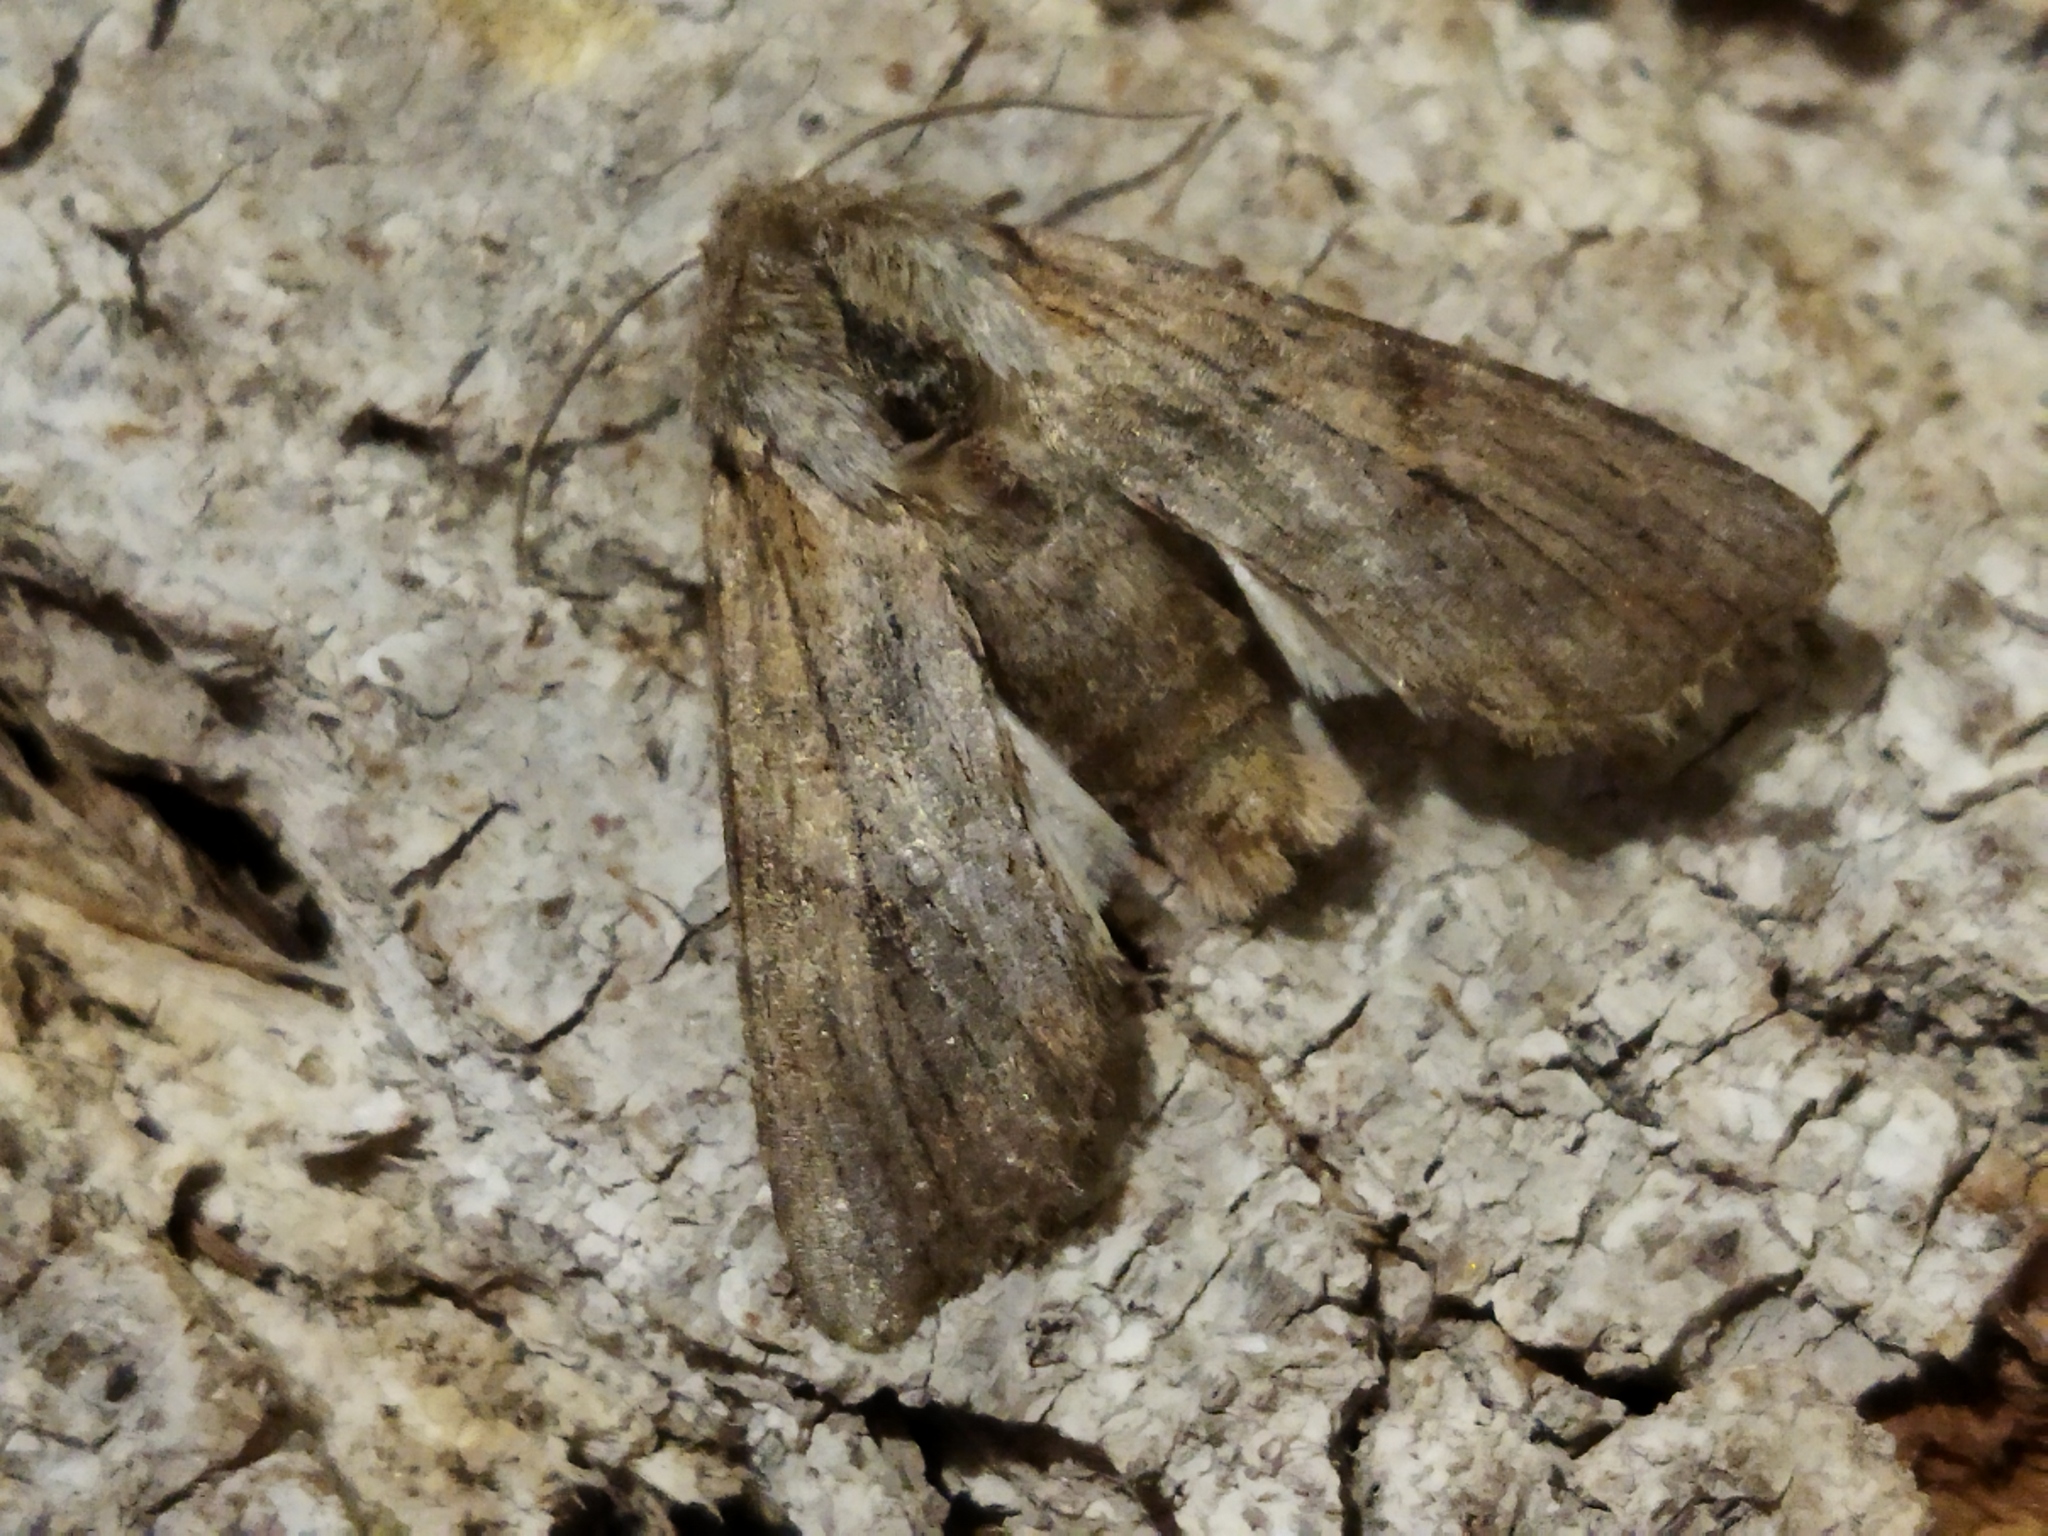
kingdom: Animalia
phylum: Arthropoda
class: Insecta
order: Lepidoptera
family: Noctuidae
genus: Egira
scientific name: Egira
